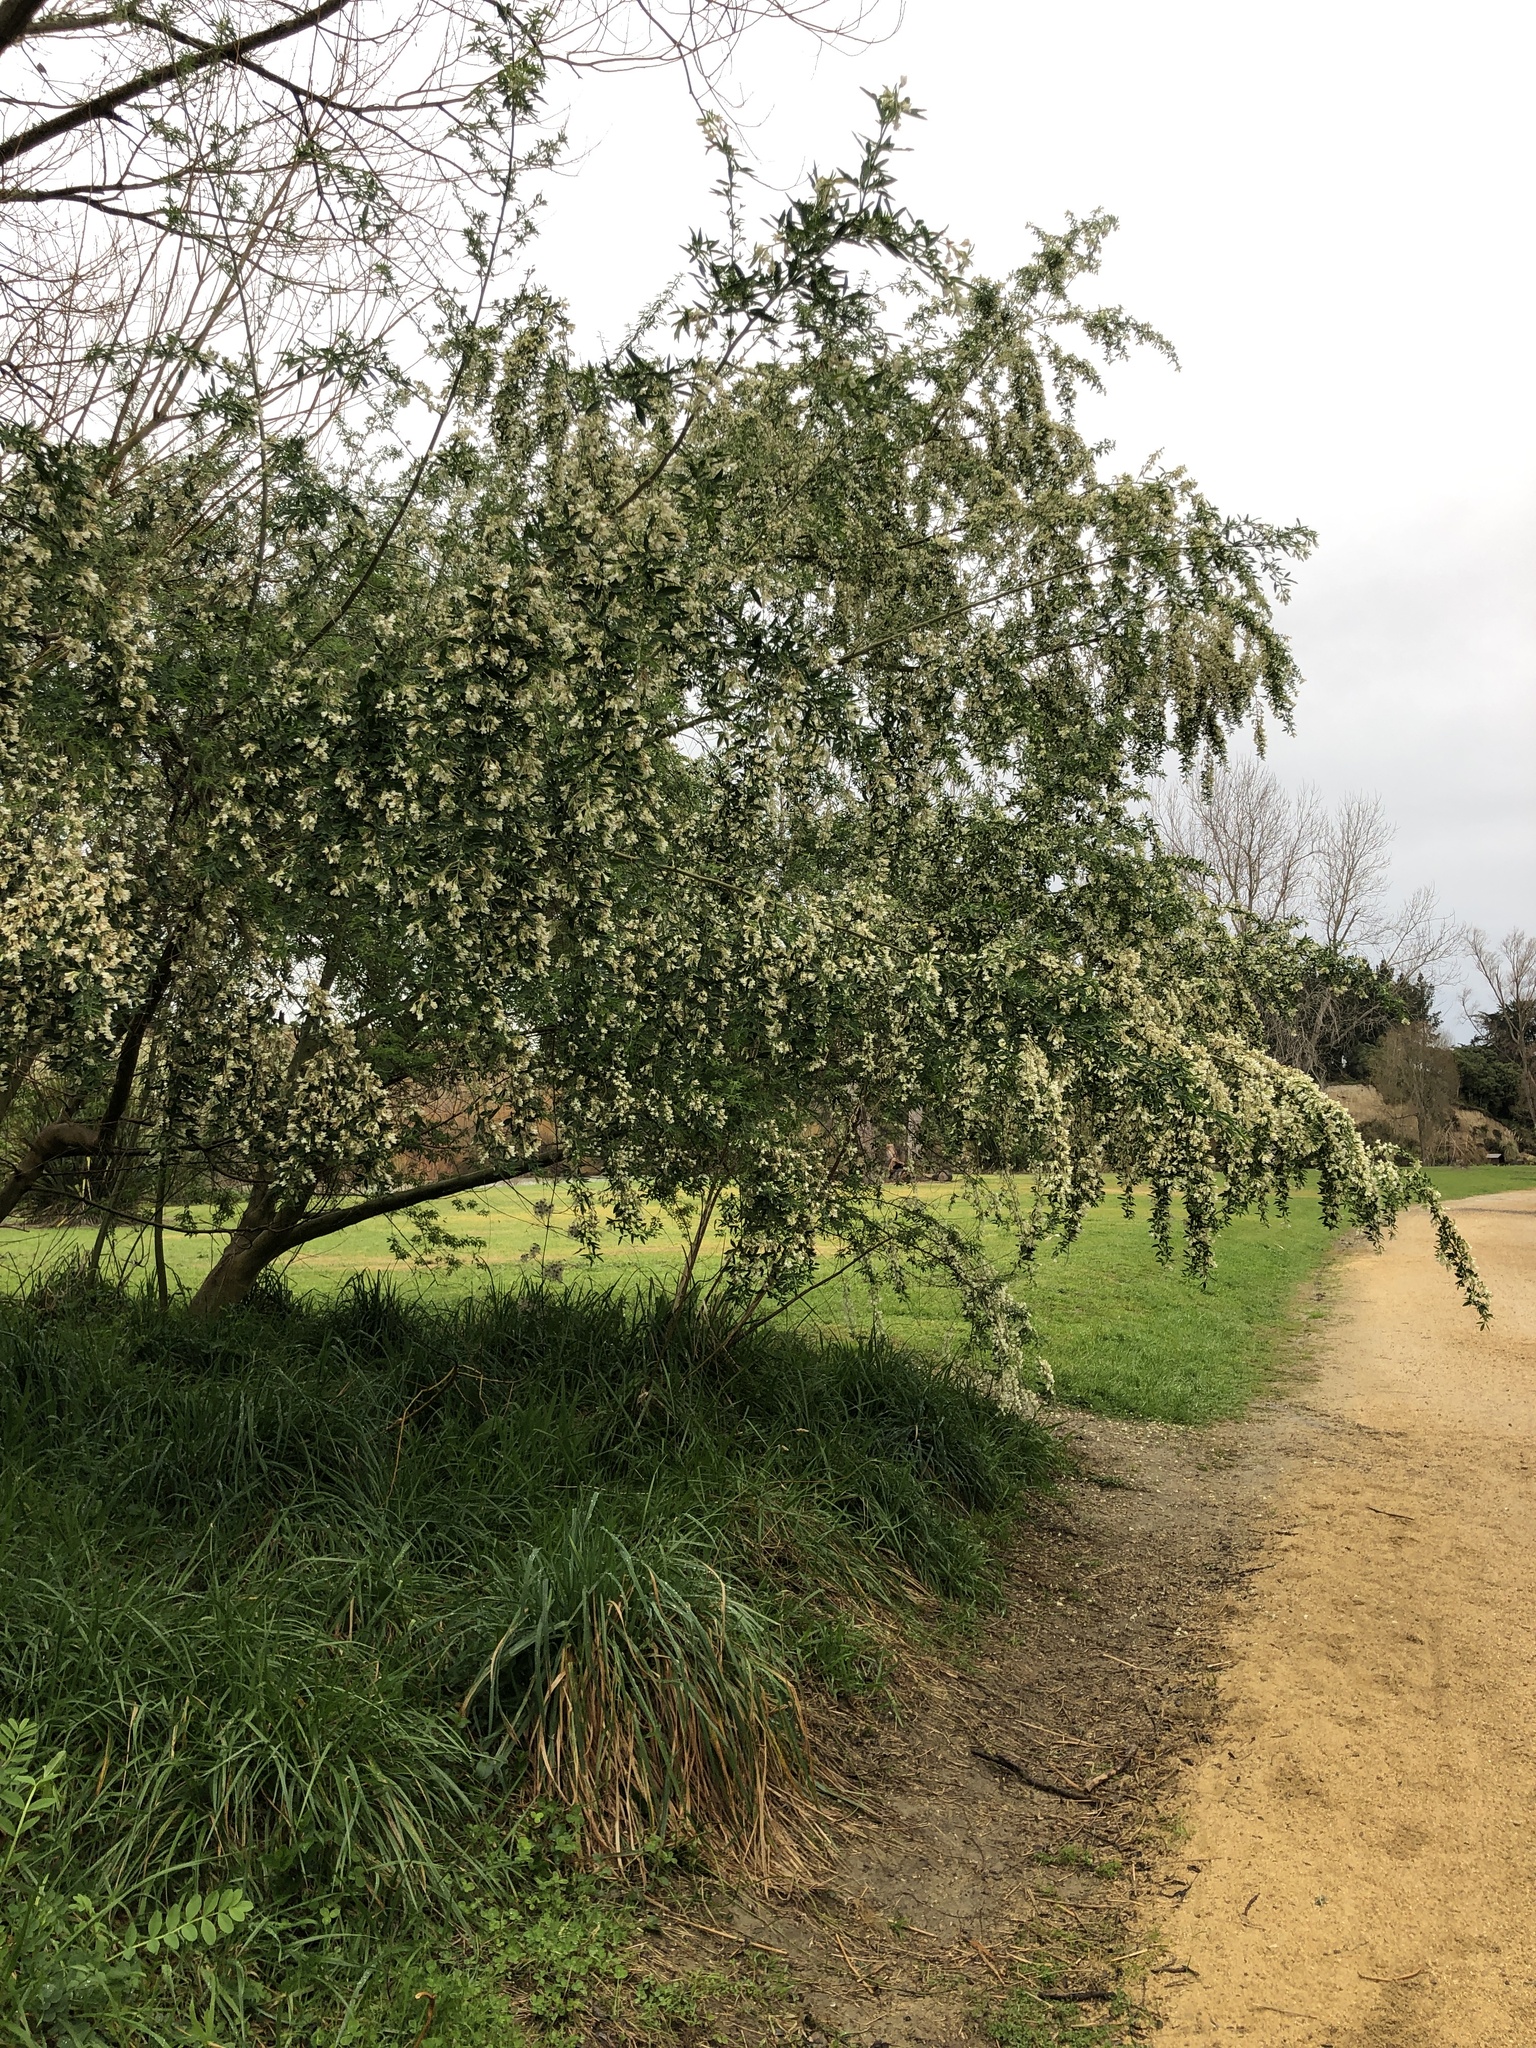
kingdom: Plantae
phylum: Tracheophyta
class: Magnoliopsida
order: Fabales
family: Fabaceae
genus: Chamaecytisus
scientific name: Chamaecytisus prolifer
